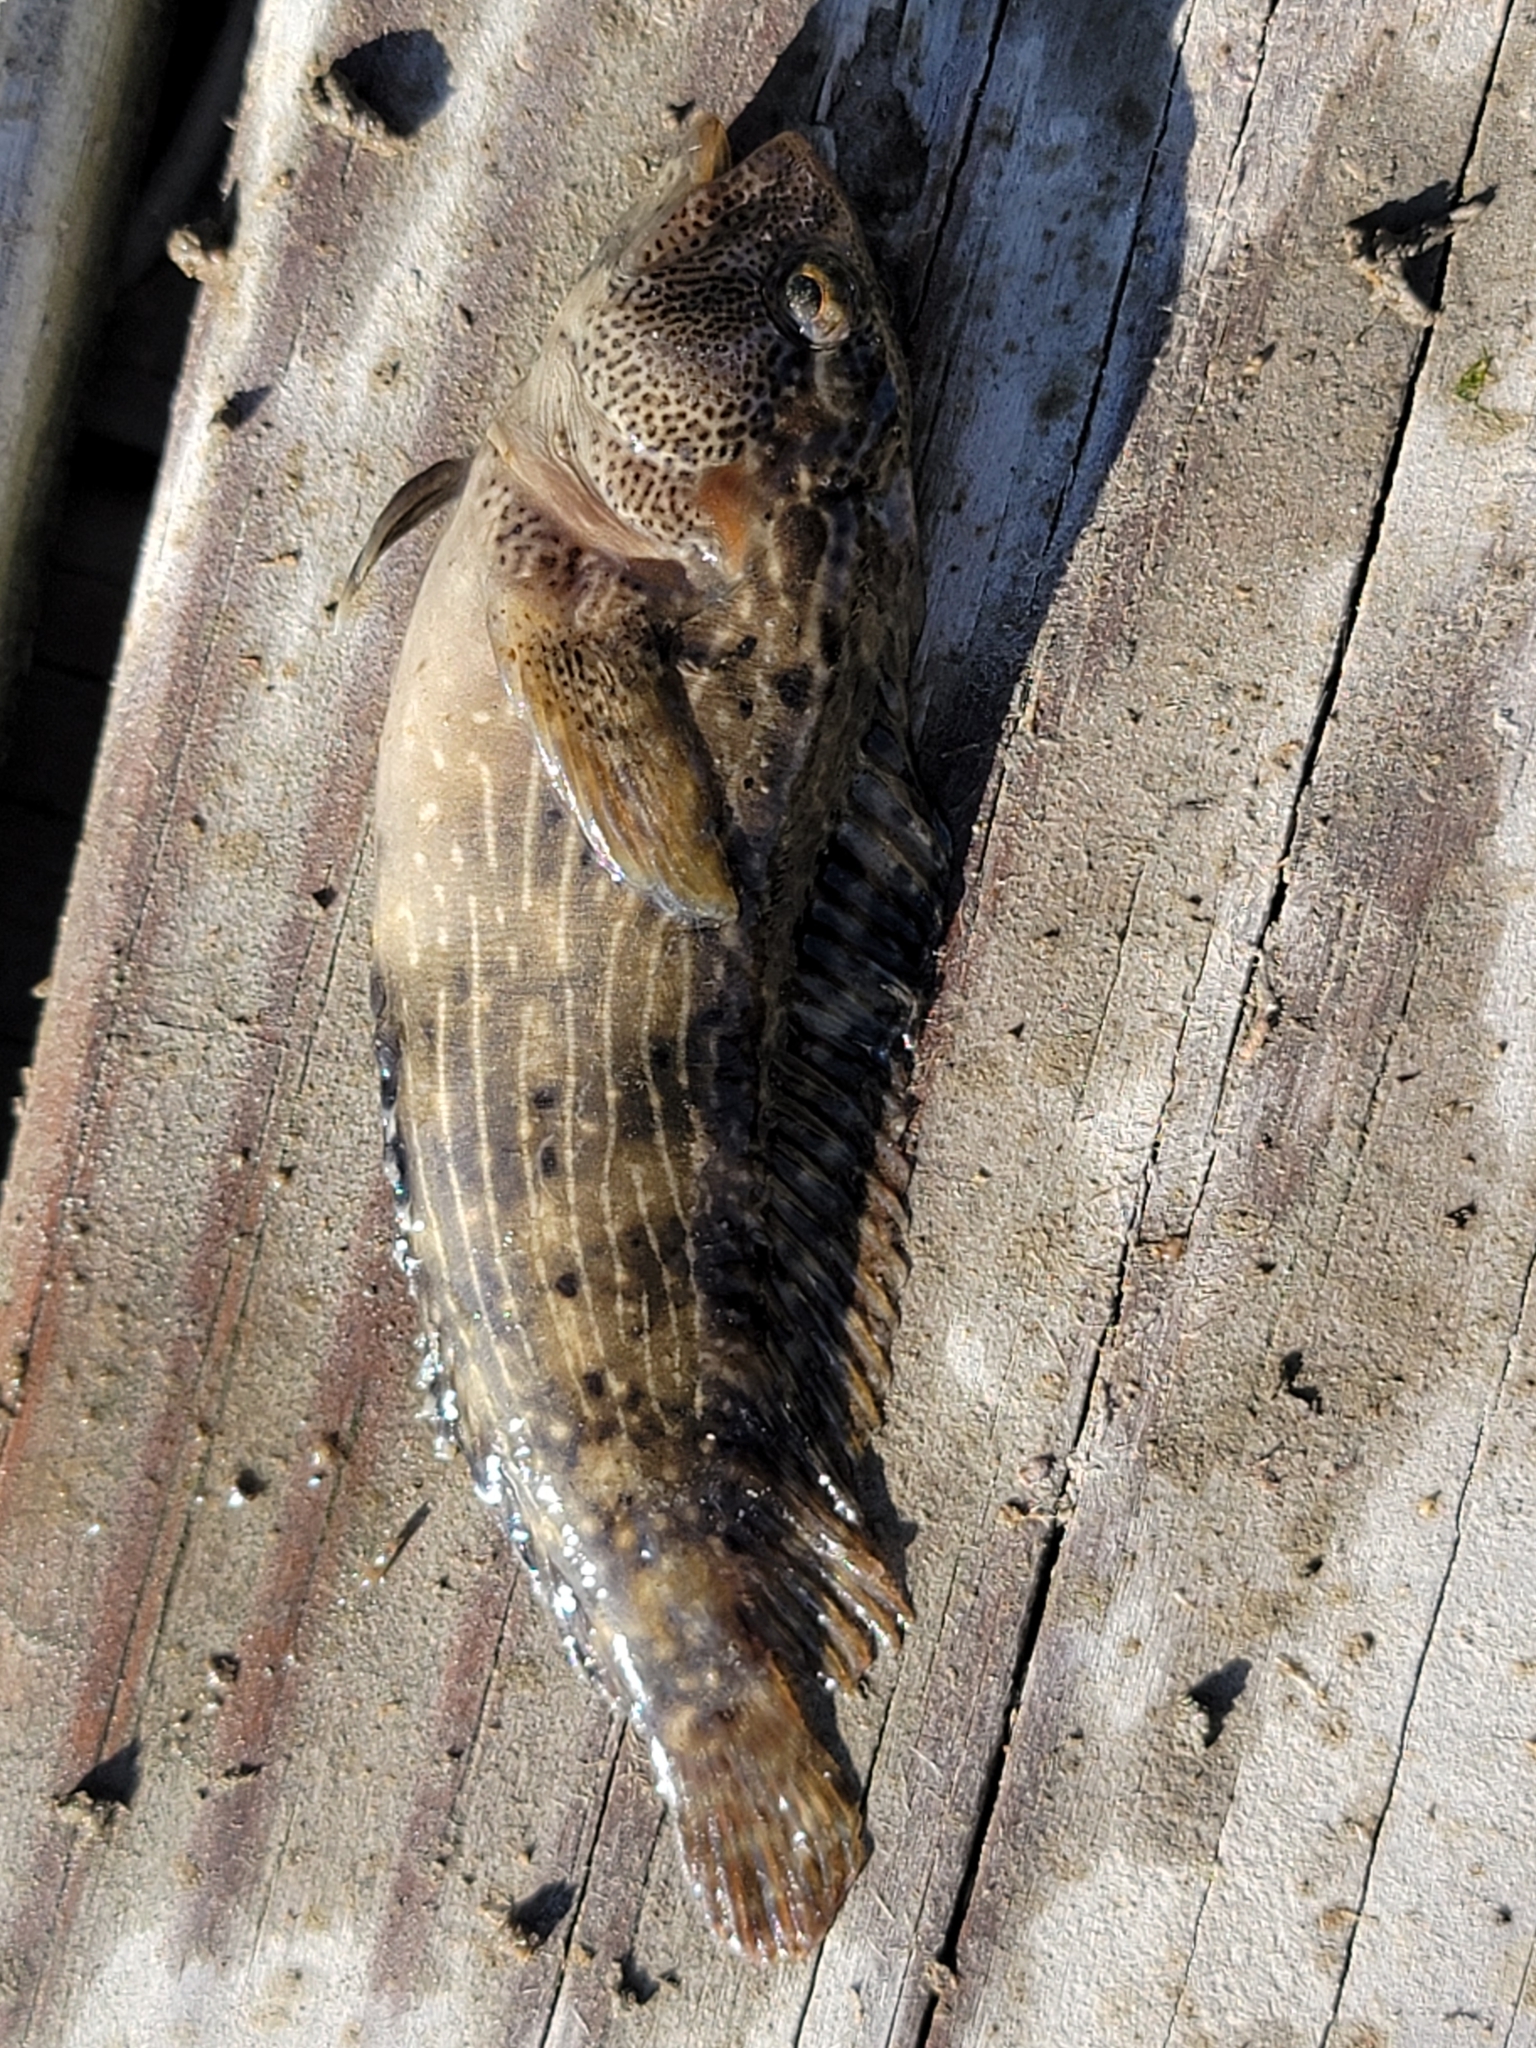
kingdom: Animalia
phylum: Chordata
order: Perciformes
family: Blenniidae
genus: Chasmodes
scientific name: Chasmodes bosquianus
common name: Striped blenny
